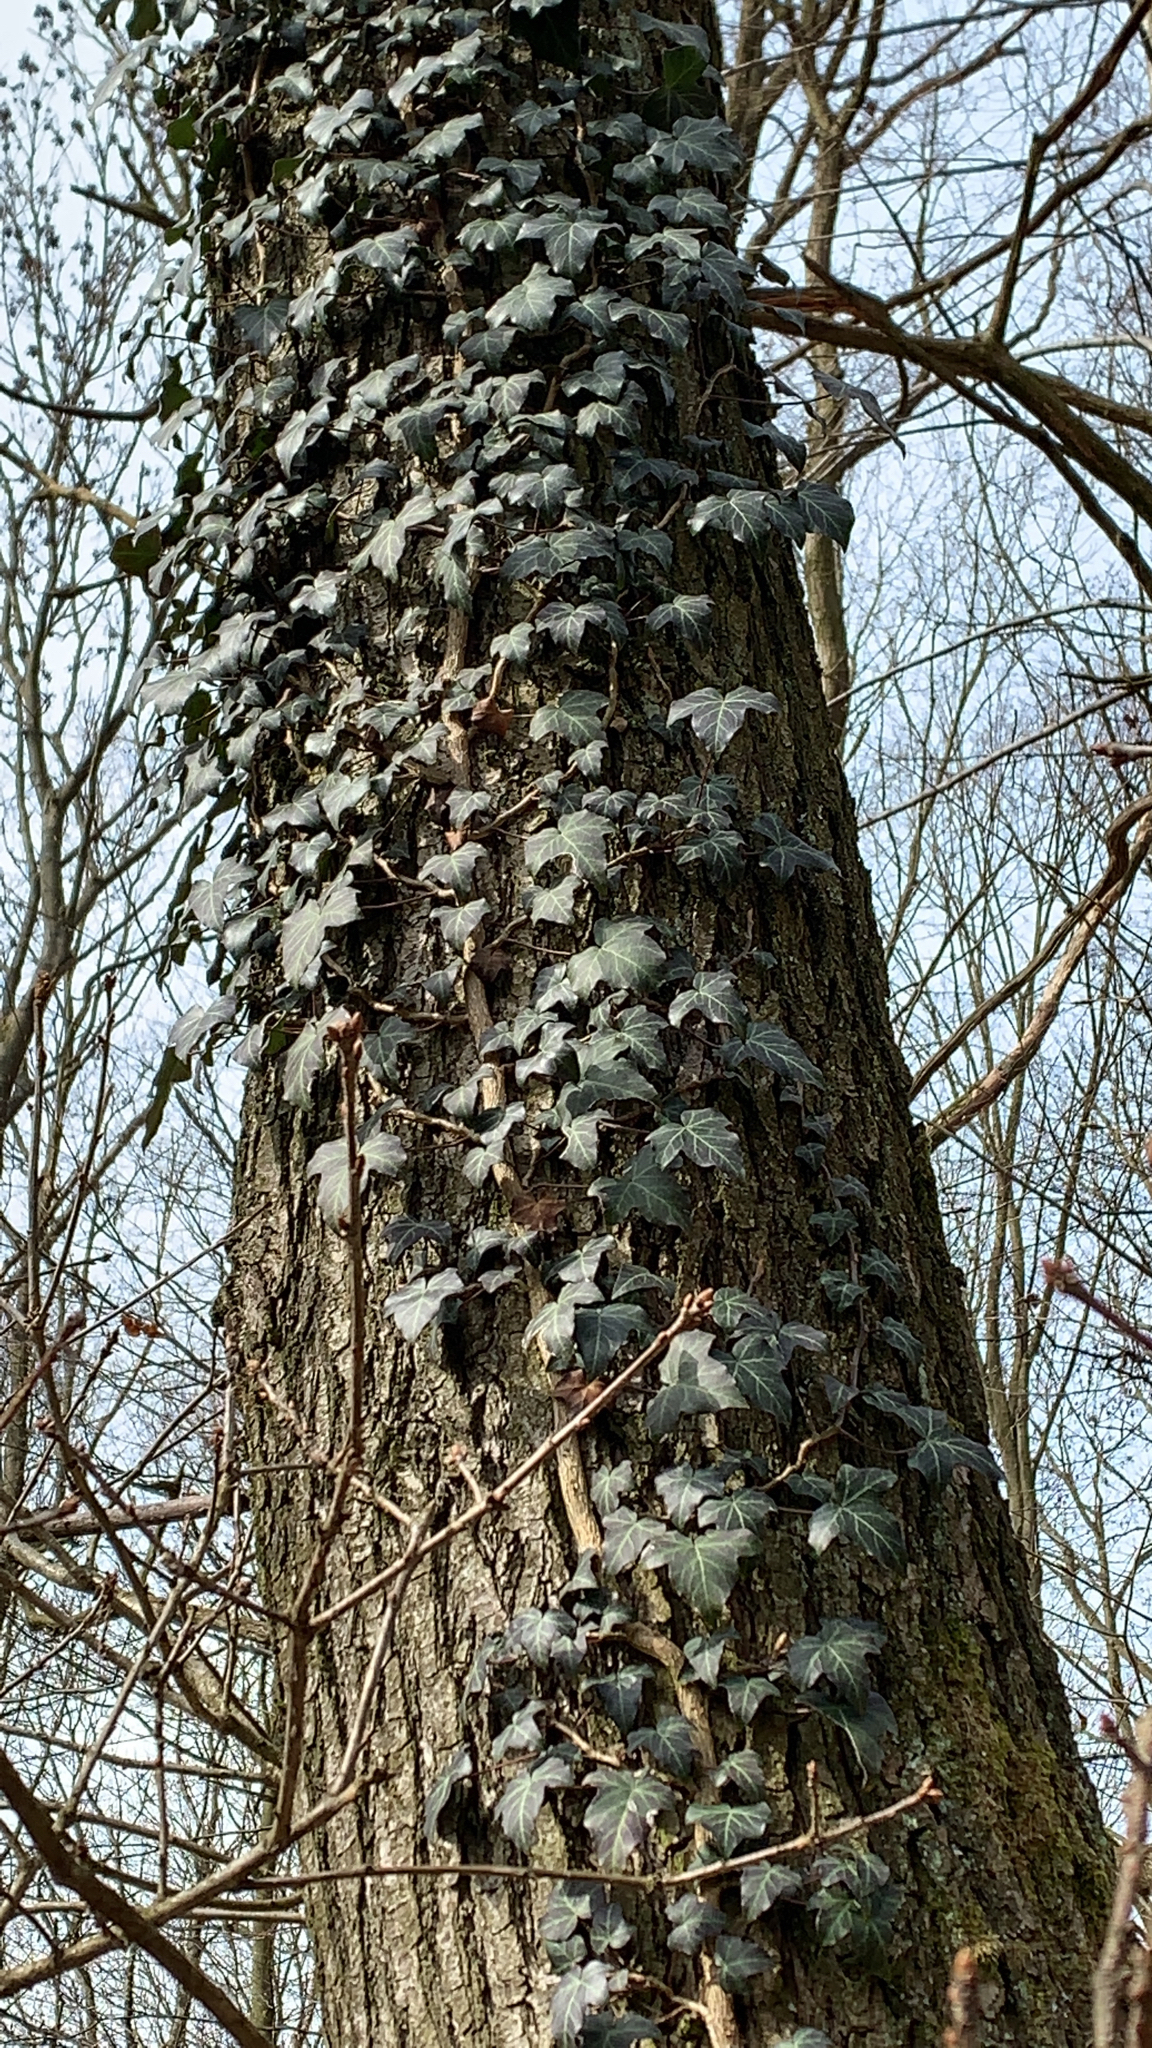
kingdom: Plantae
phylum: Tracheophyta
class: Magnoliopsida
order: Apiales
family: Araliaceae
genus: Hedera
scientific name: Hedera helix
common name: Ivy
